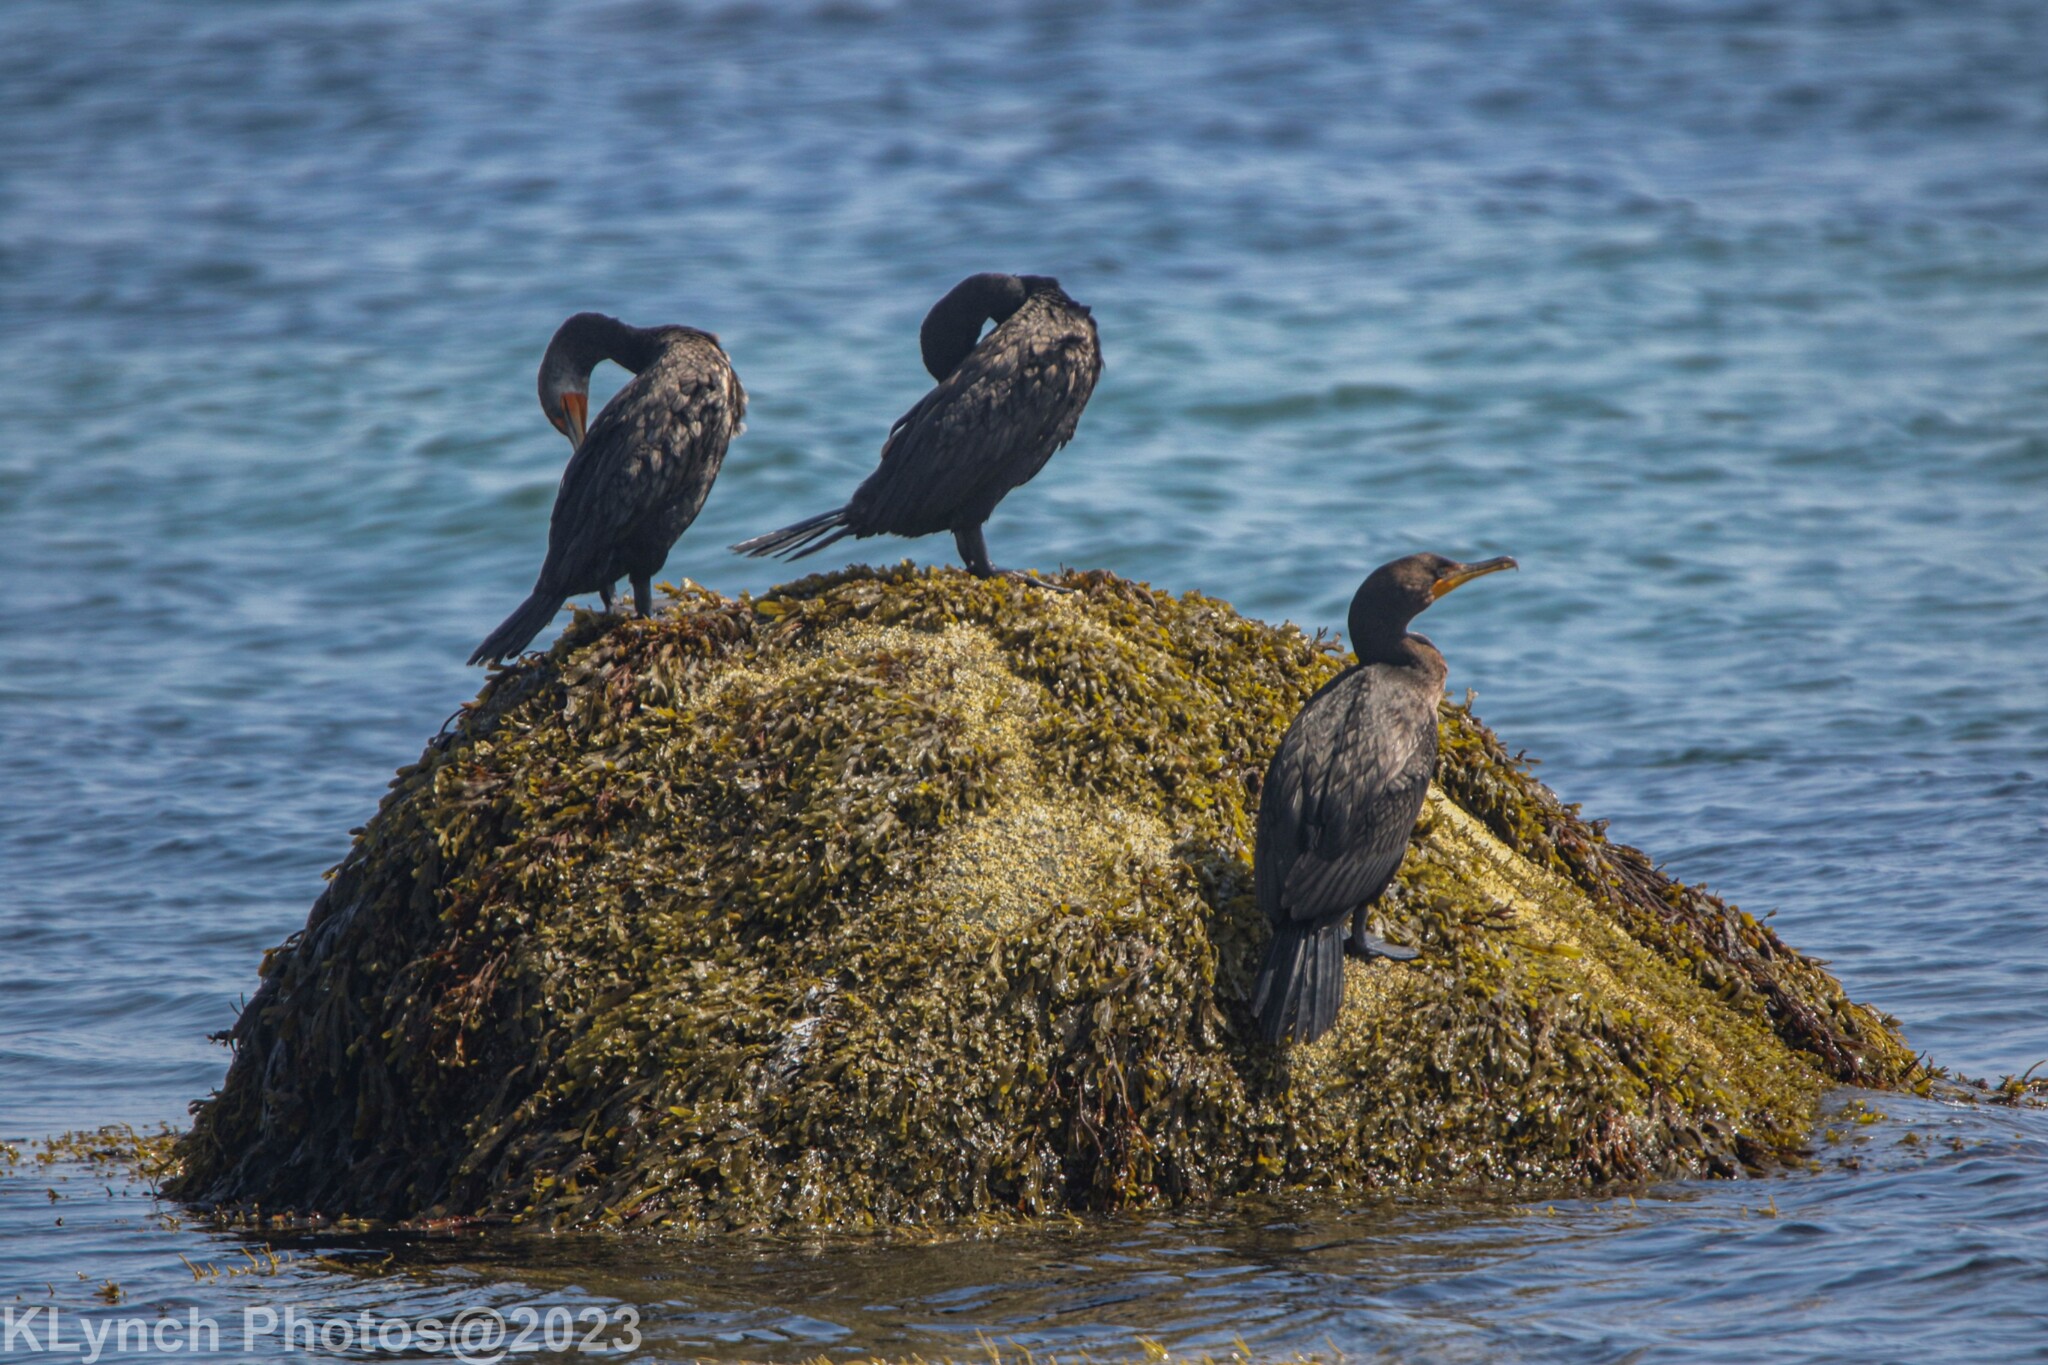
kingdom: Animalia
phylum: Chordata
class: Aves
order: Suliformes
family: Phalacrocoracidae
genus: Phalacrocorax
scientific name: Phalacrocorax auritus
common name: Double-crested cormorant
